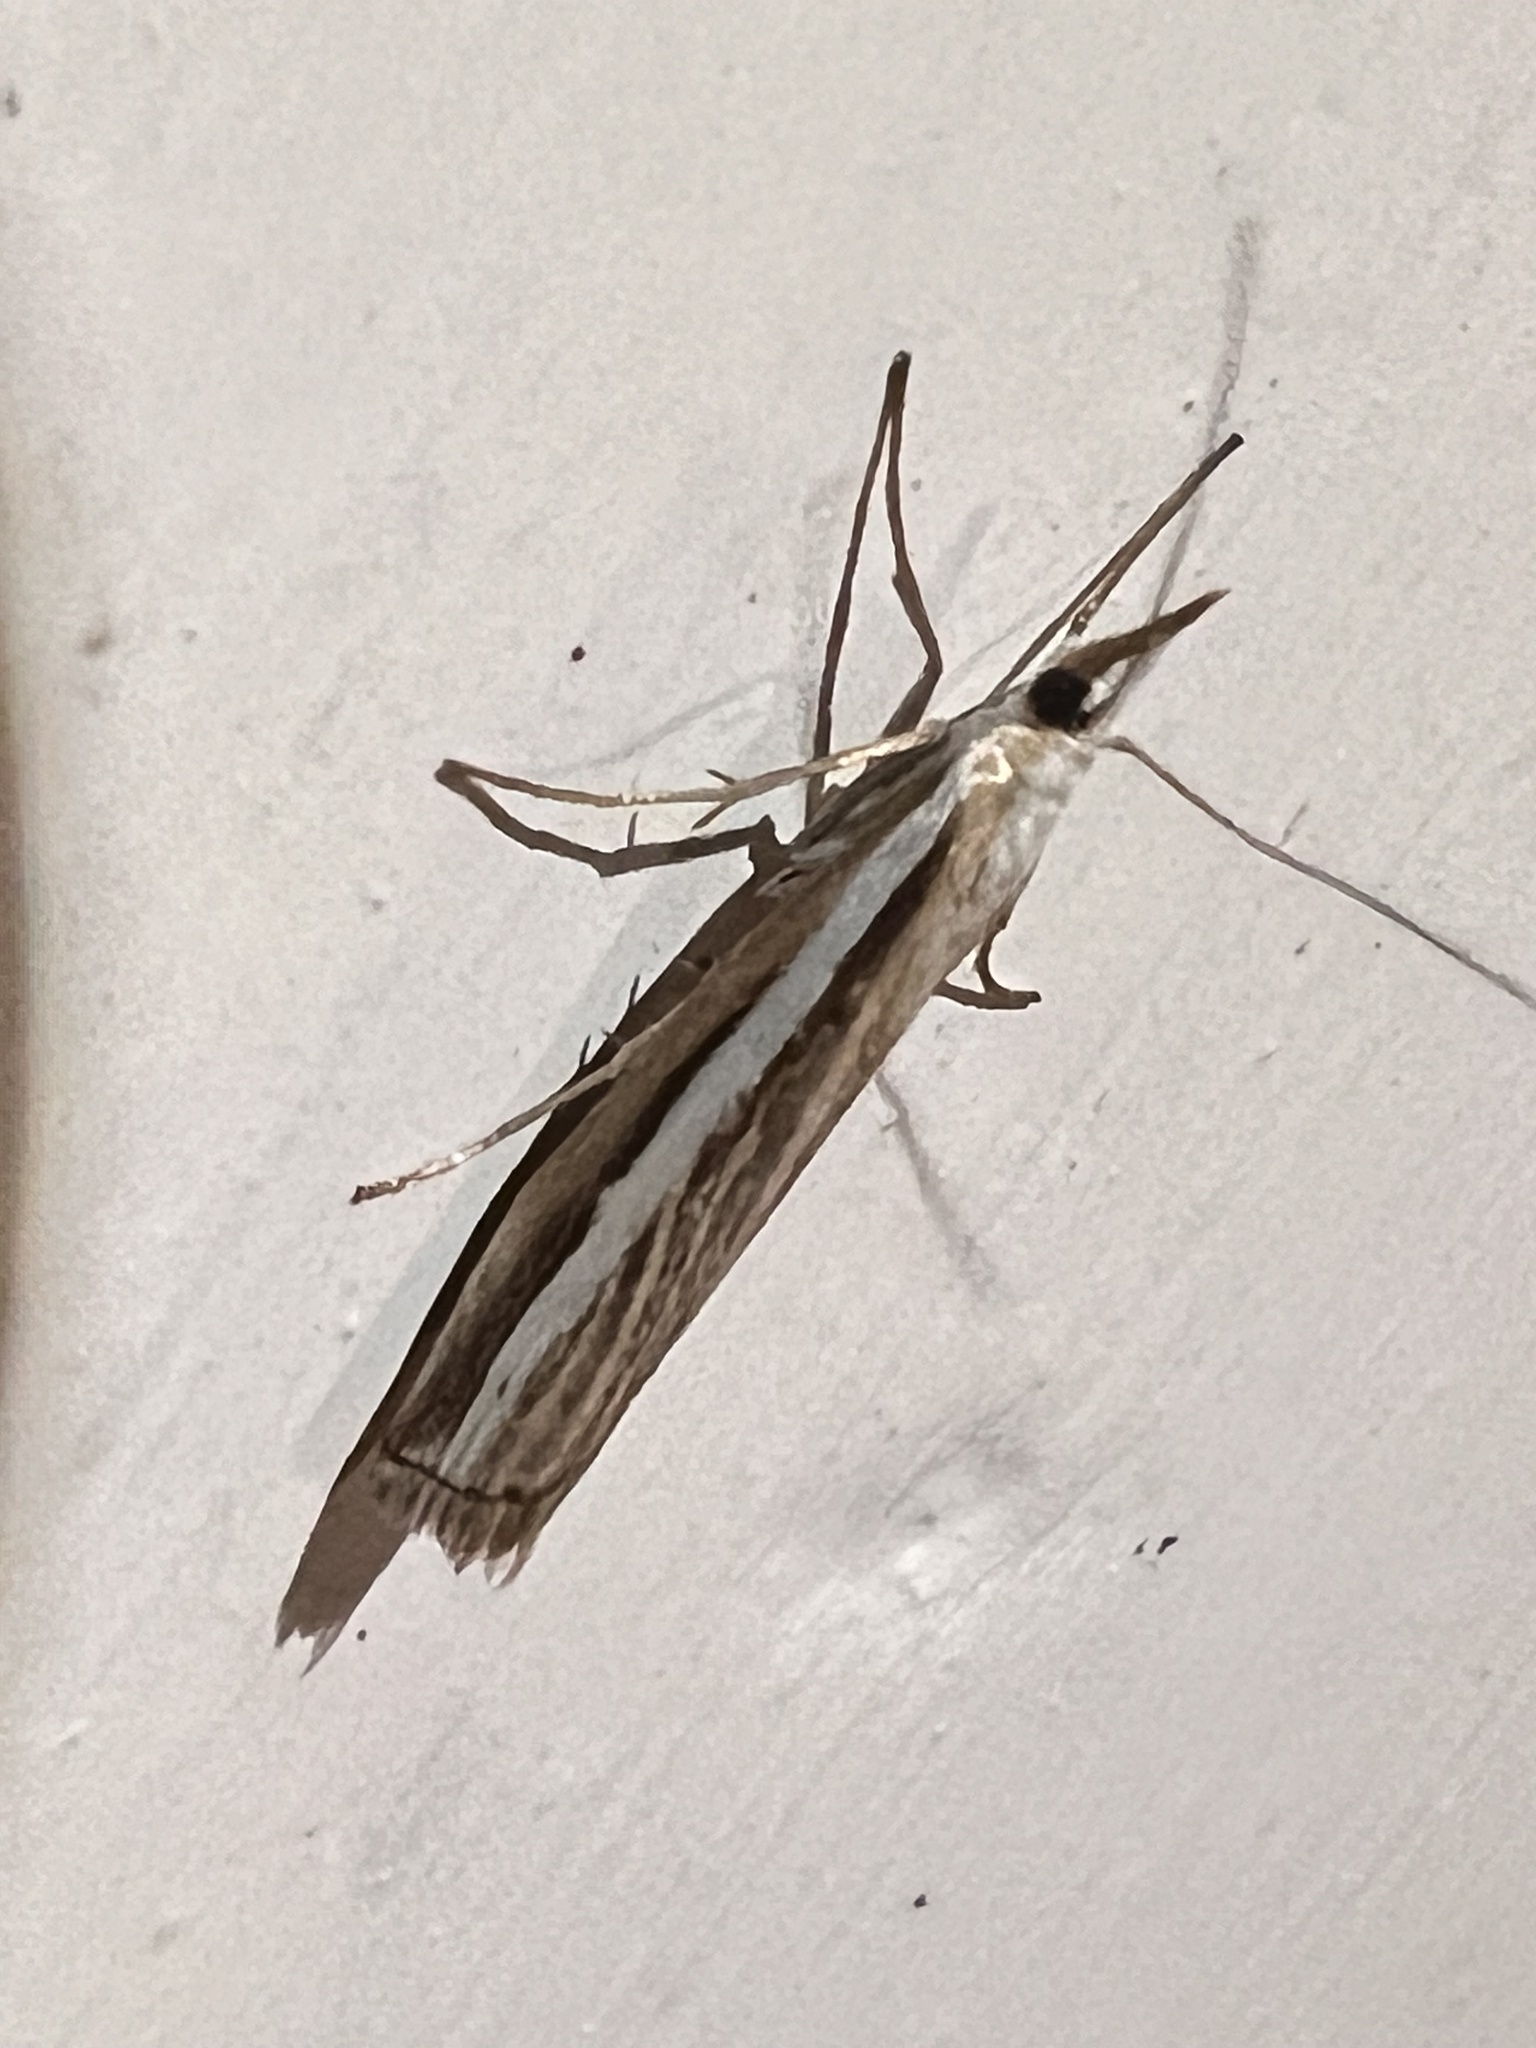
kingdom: Animalia
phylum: Arthropoda
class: Insecta
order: Lepidoptera
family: Crambidae
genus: Orocrambus
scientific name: Orocrambus vittellus
